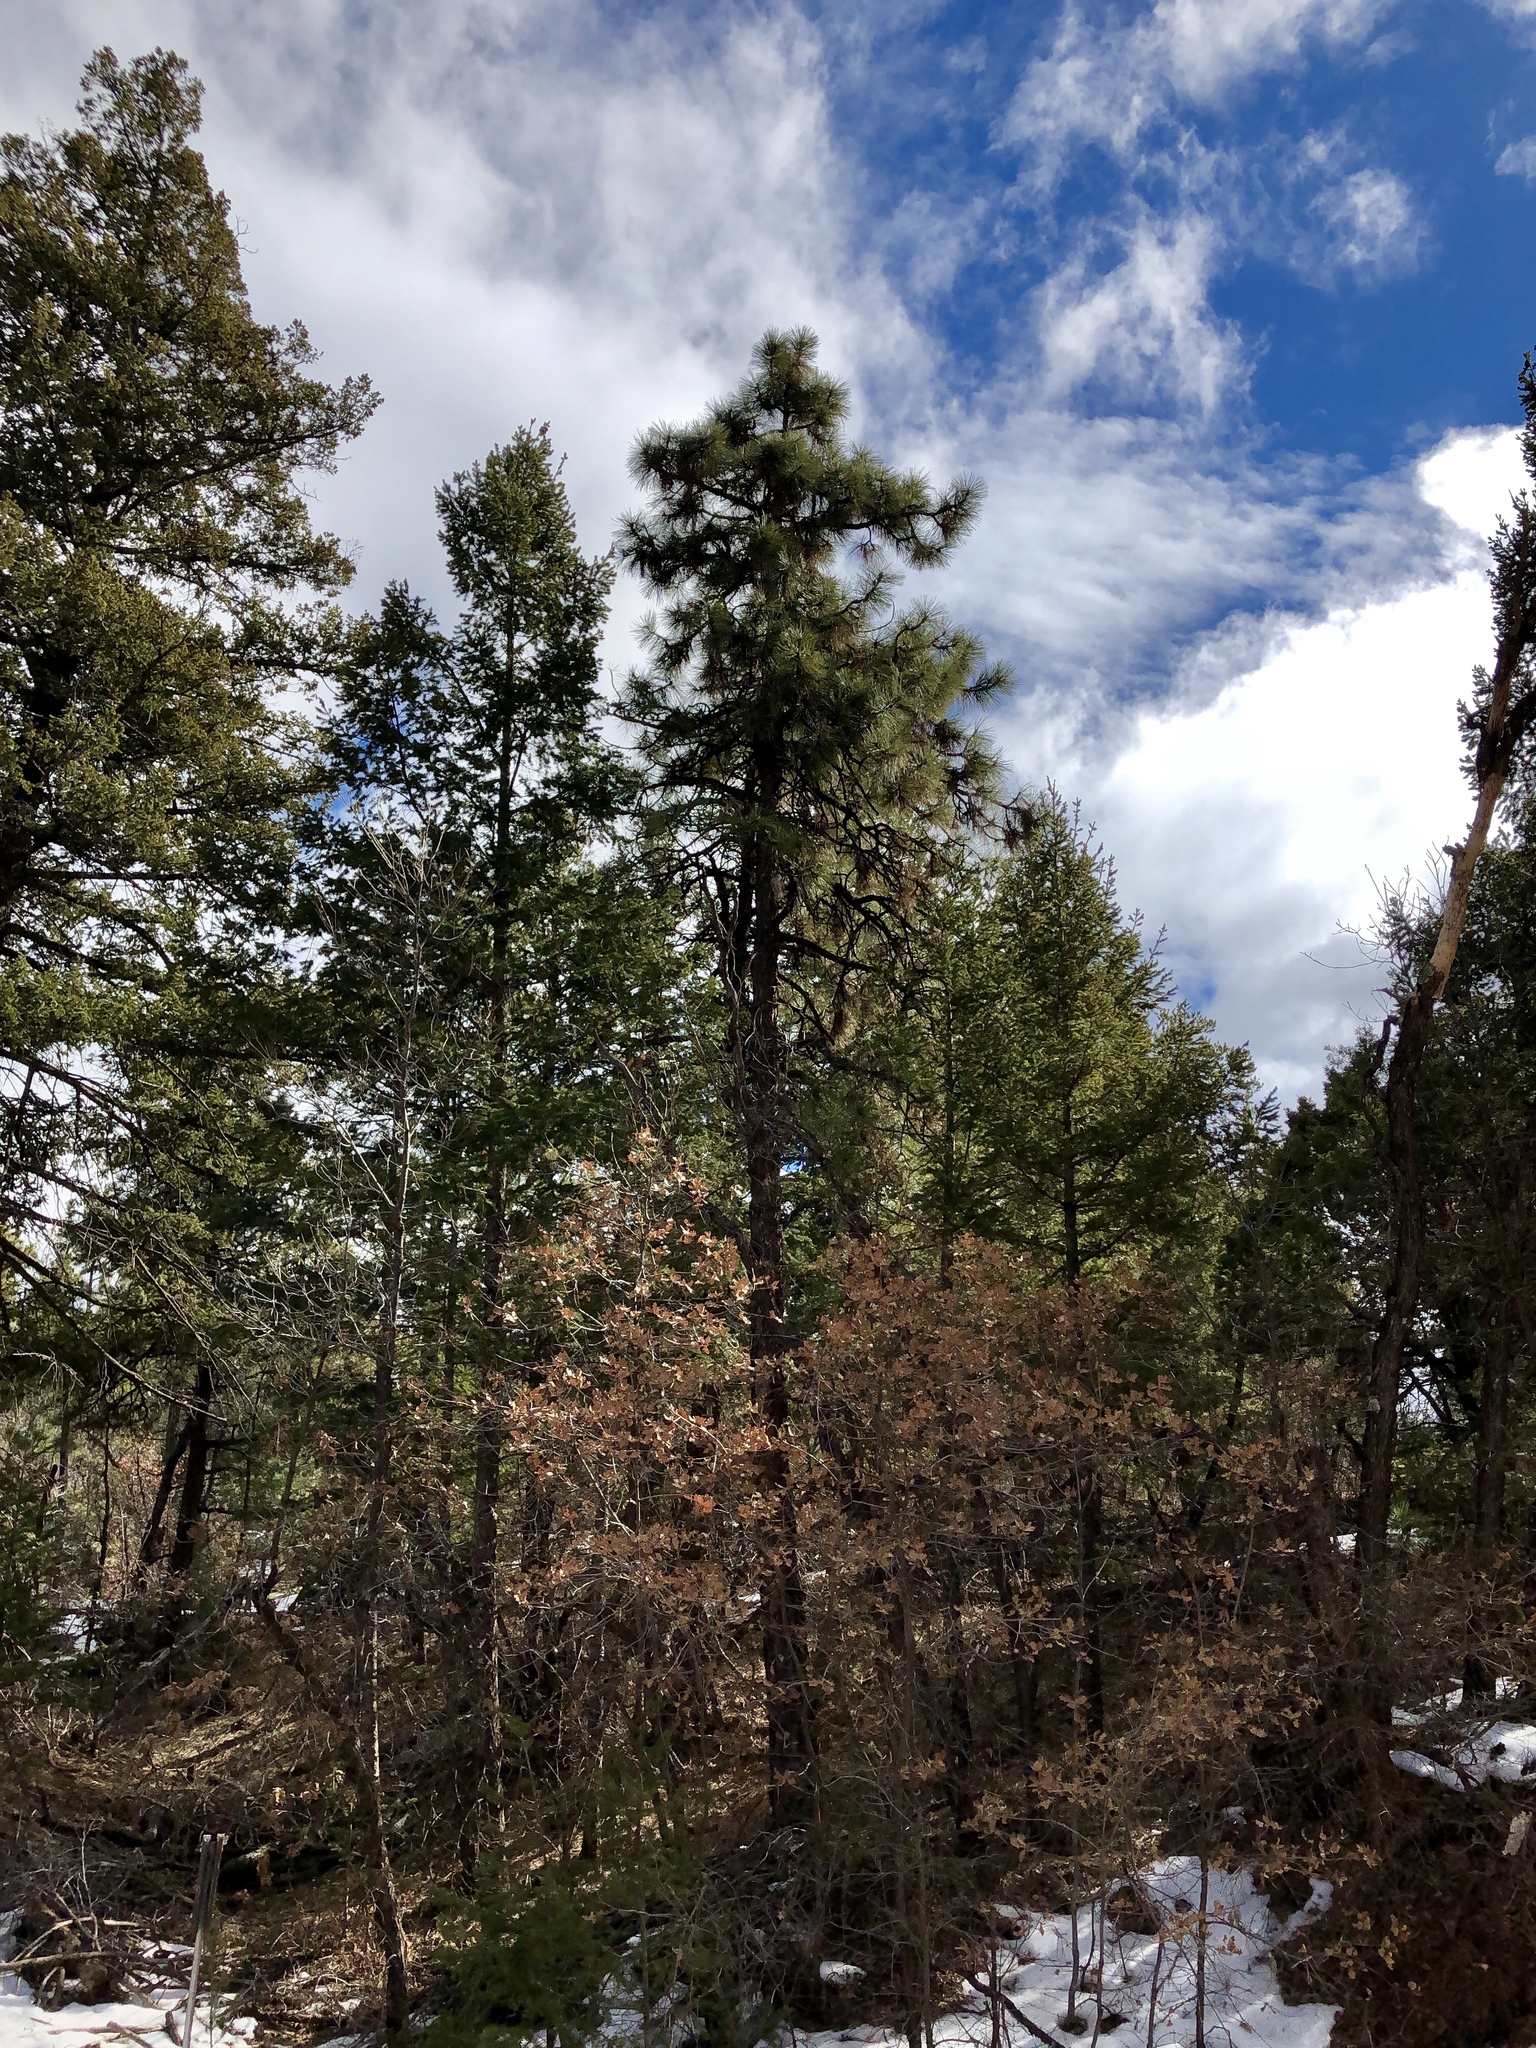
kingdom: Plantae
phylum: Tracheophyta
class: Pinopsida
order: Pinales
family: Pinaceae
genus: Pinus
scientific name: Pinus ponderosa
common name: Western yellow-pine
